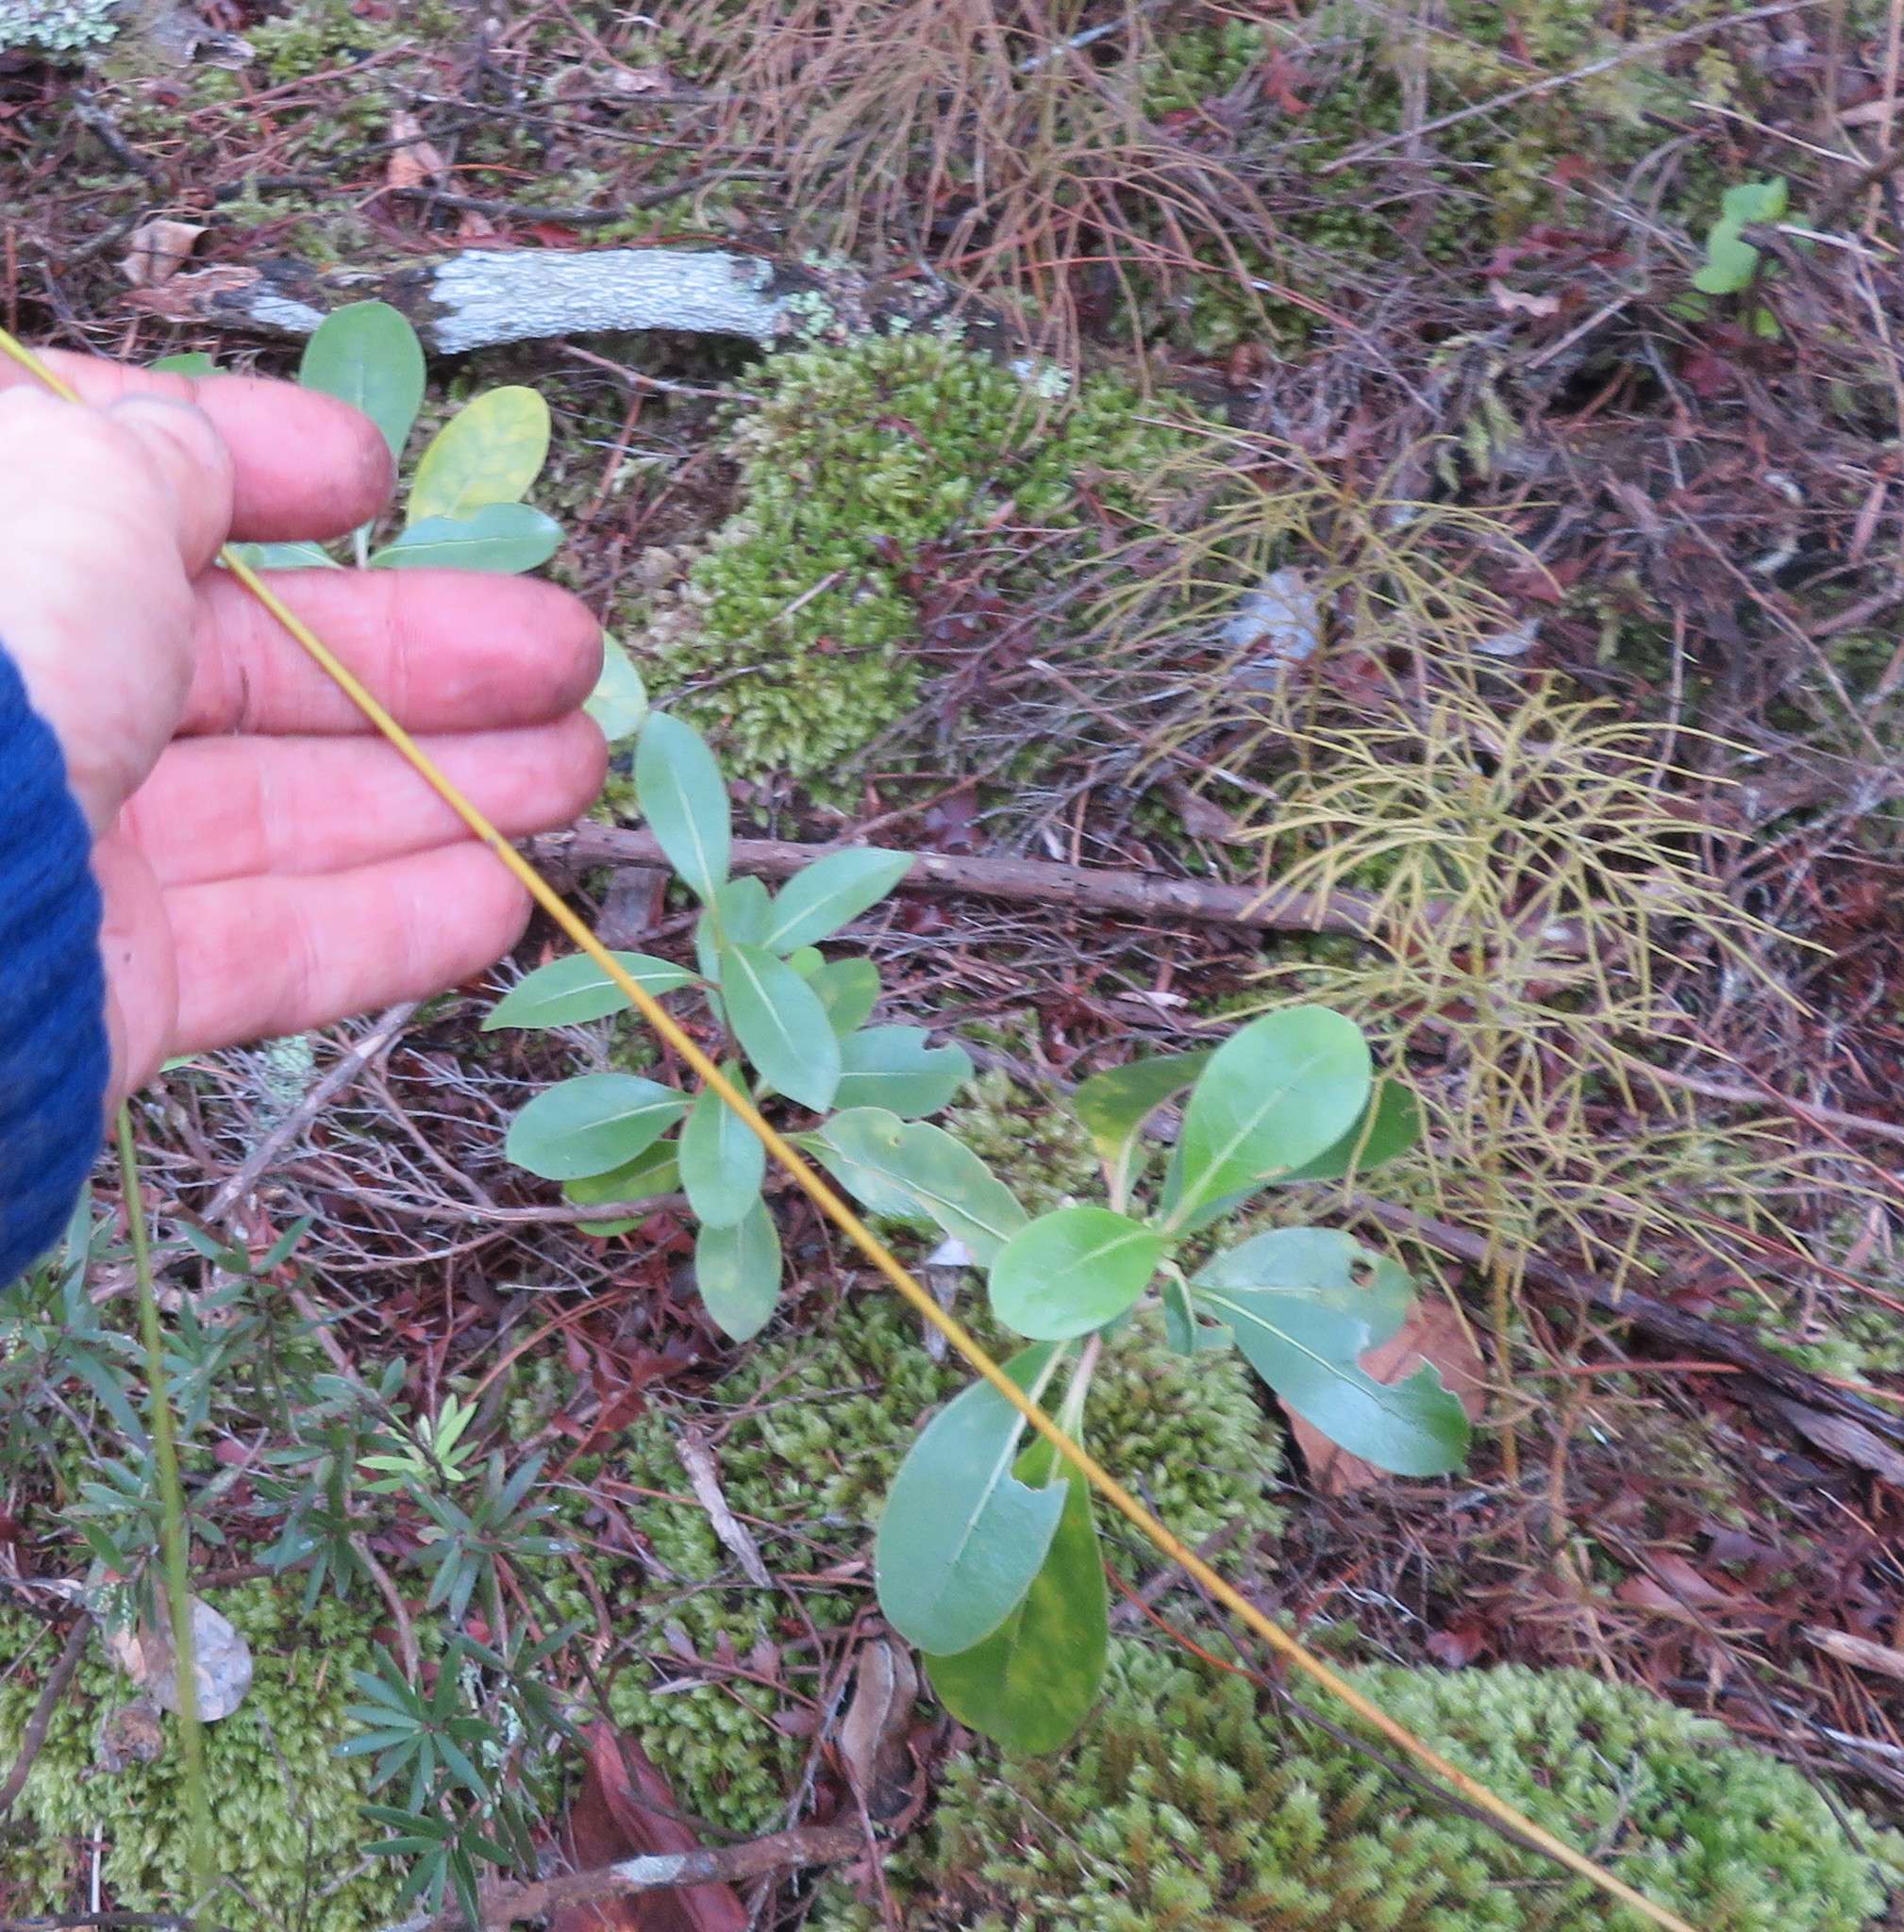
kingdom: Plantae
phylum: Tracheophyta
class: Lycopodiopsida
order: Lycopodiales
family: Lycopodiaceae
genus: Pseudolycopodium
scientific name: Pseudolycopodium densum
